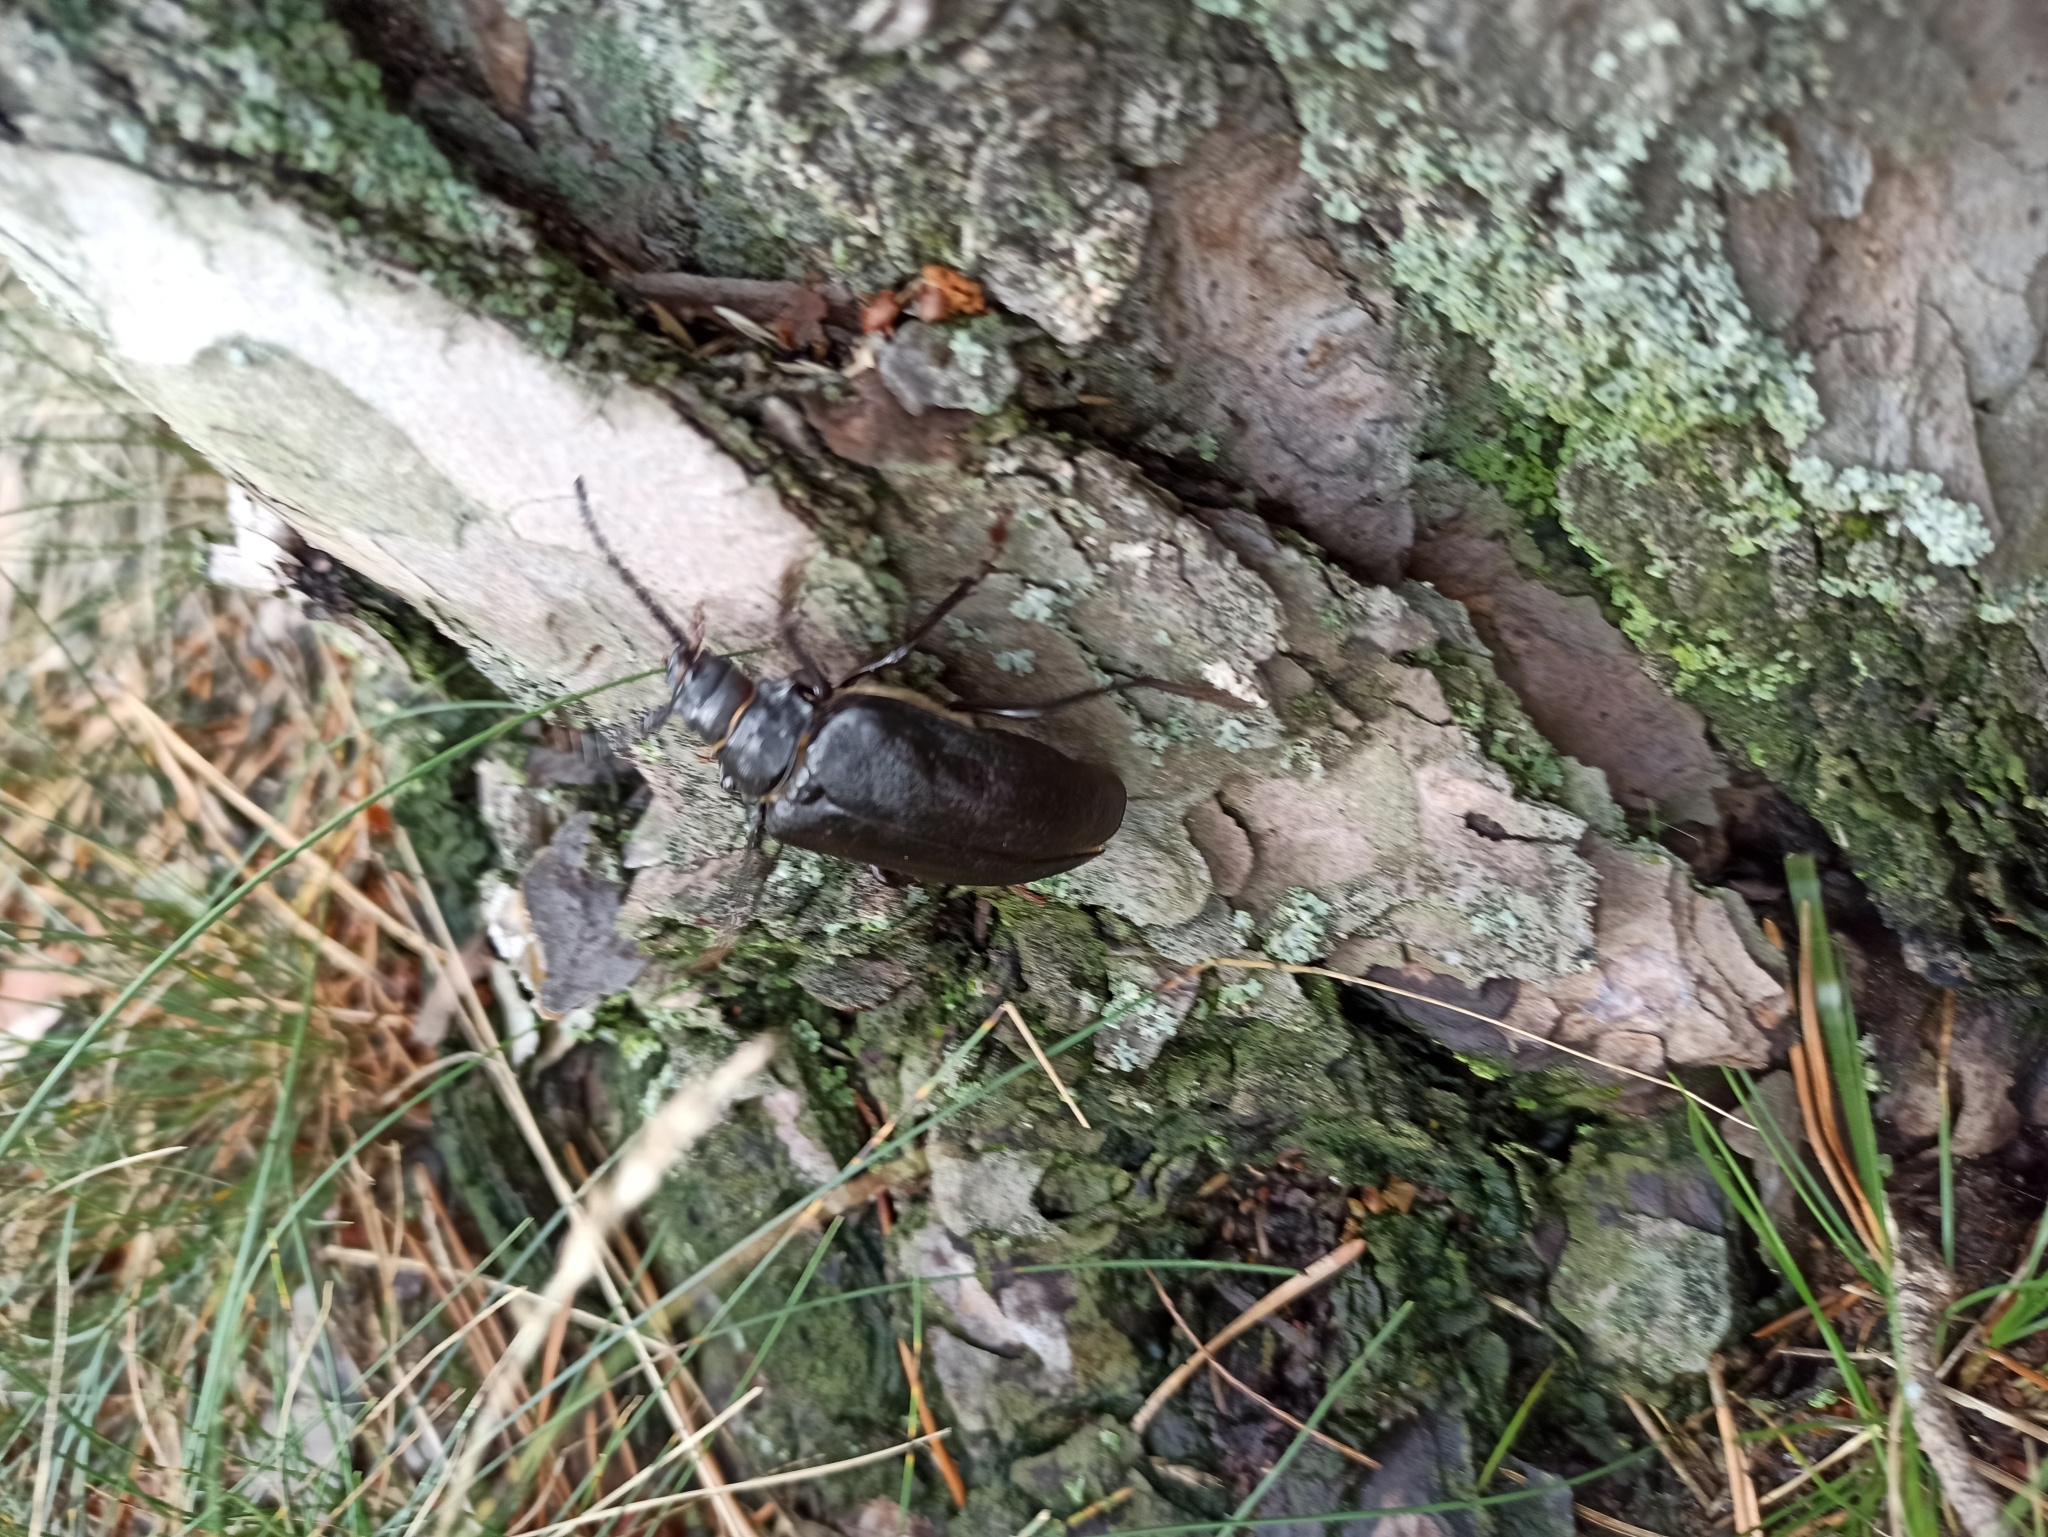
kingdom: Animalia
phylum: Arthropoda
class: Insecta
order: Coleoptera
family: Cerambycidae
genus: Prionus
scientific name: Prionus coriarius
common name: Tanner beetle
